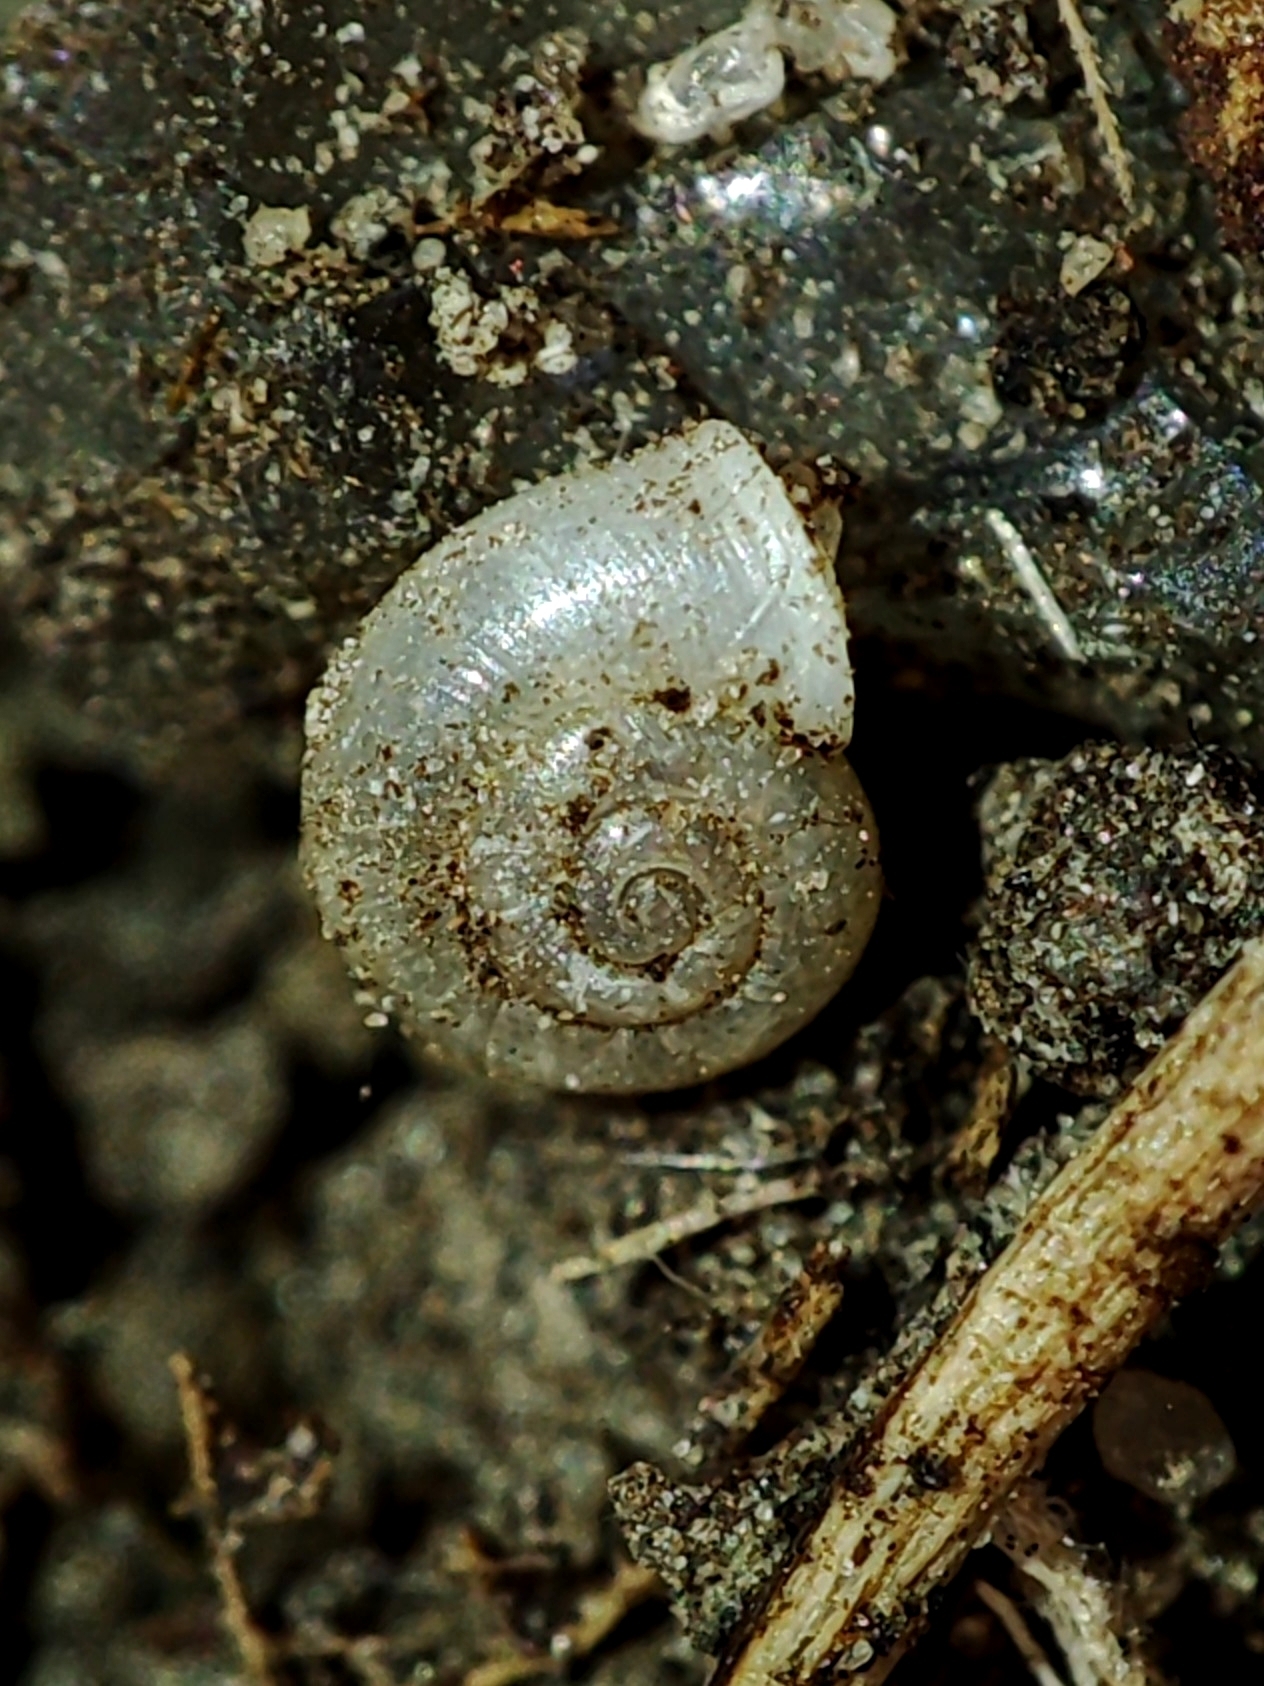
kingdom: Animalia
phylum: Mollusca
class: Gastropoda
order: Stylommatophora
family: Valloniidae
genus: Vallonia
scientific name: Vallonia pulchella
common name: Smooth grass snail
